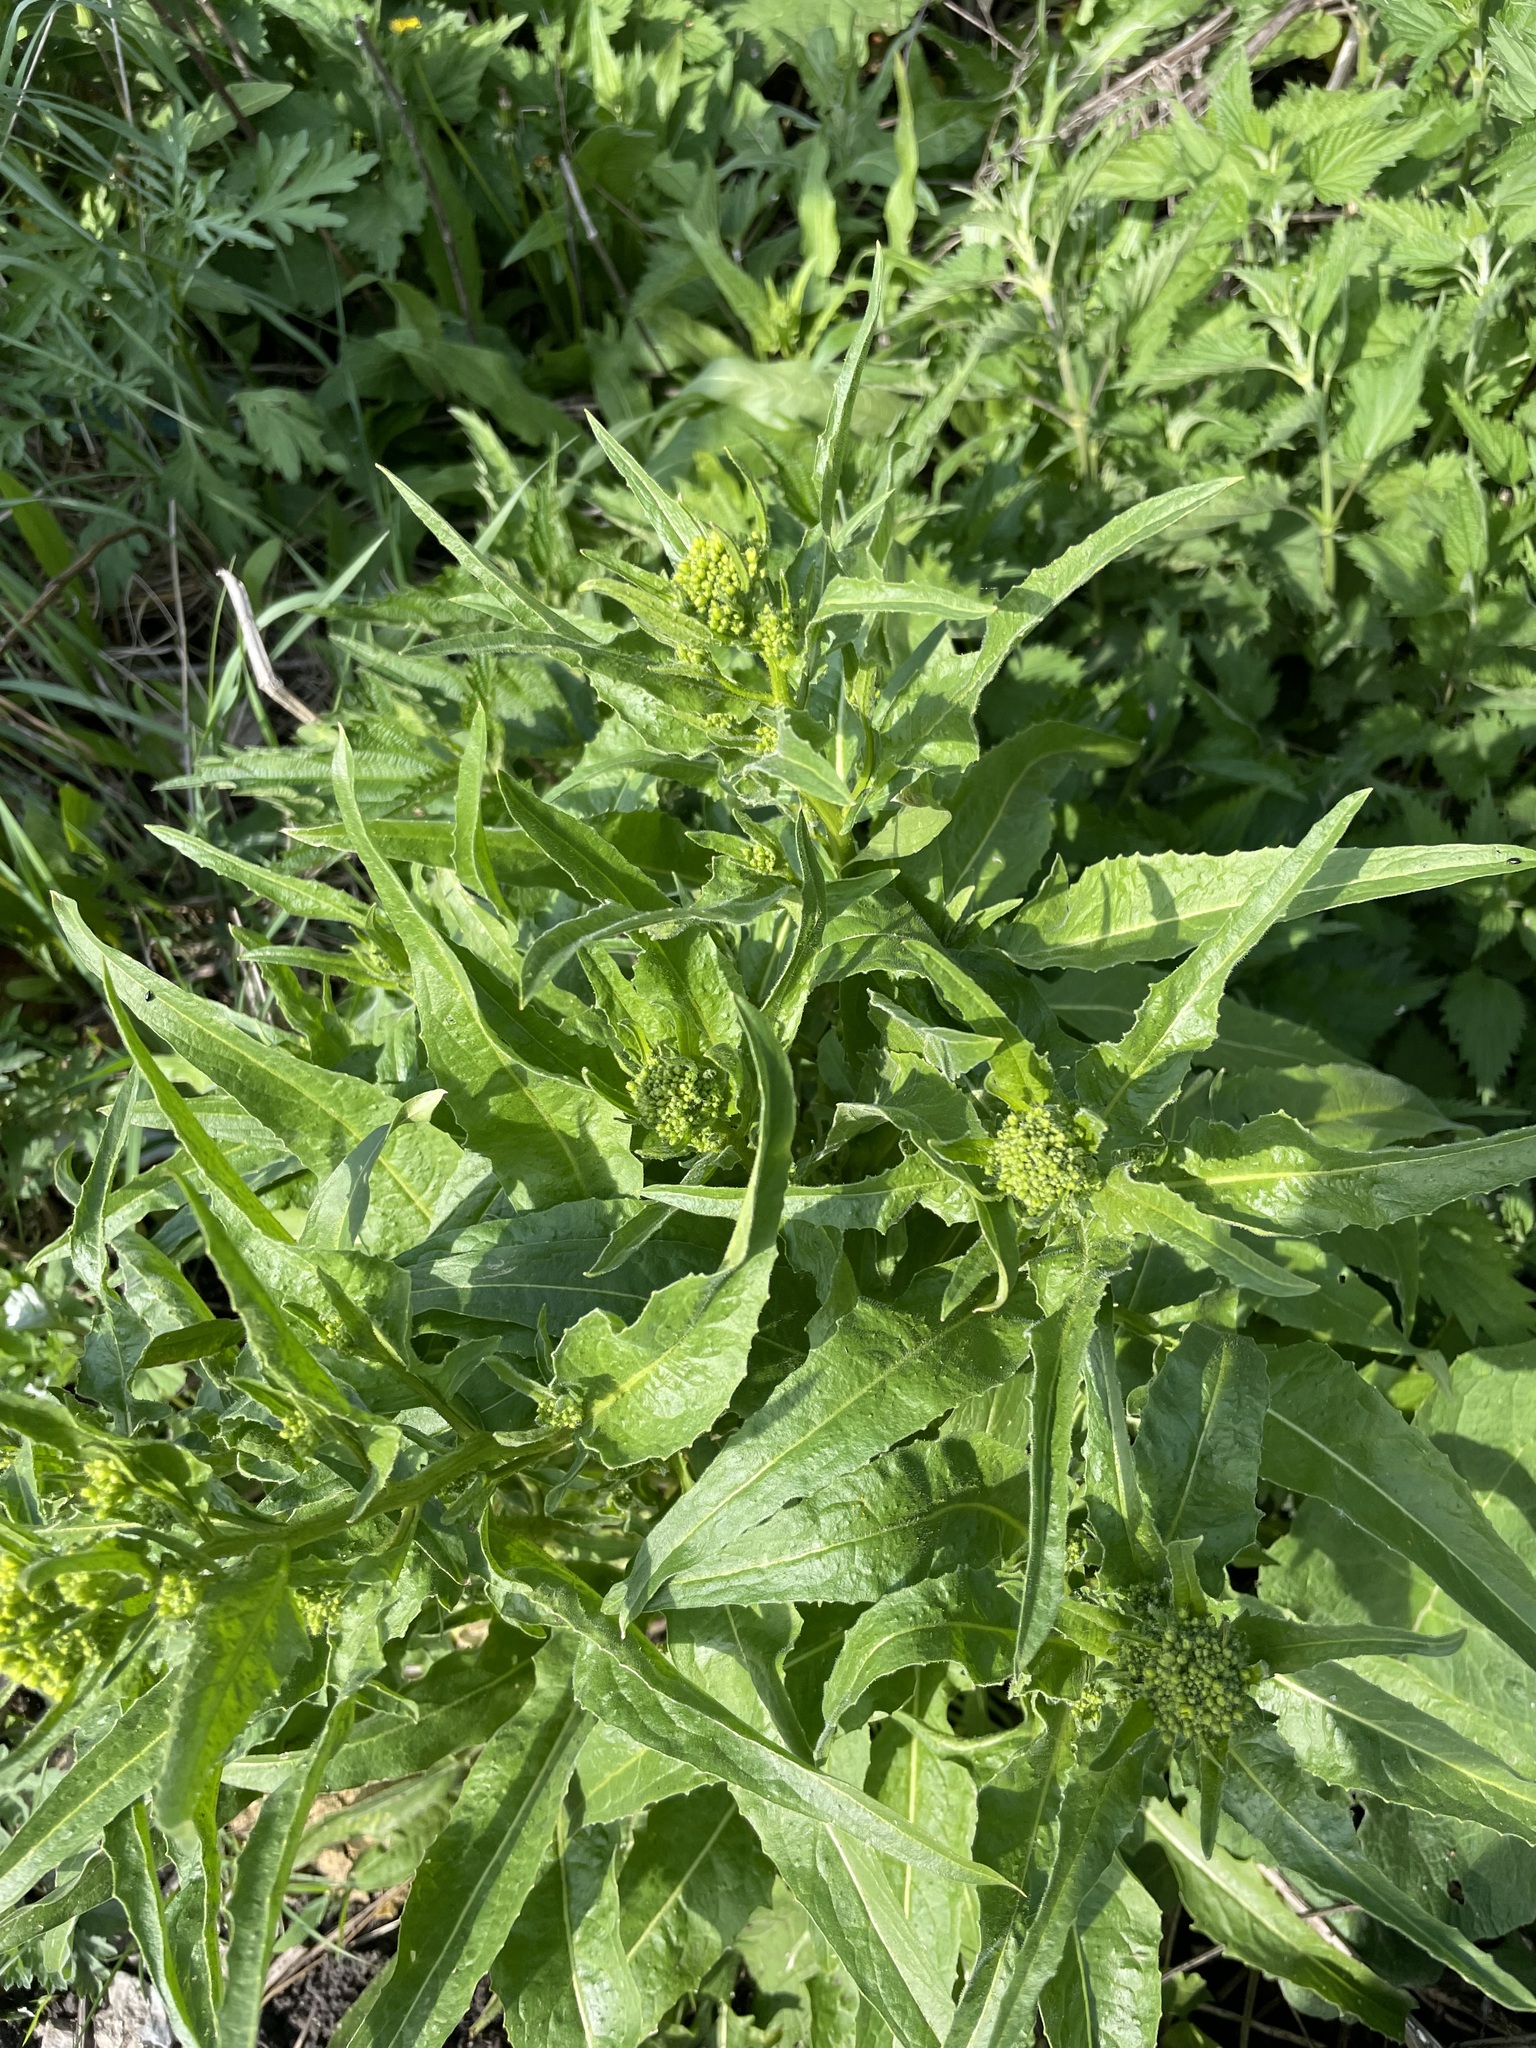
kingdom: Plantae
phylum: Tracheophyta
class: Magnoliopsida
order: Brassicales
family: Brassicaceae
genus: Bunias
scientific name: Bunias orientalis
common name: Warty-cabbage
